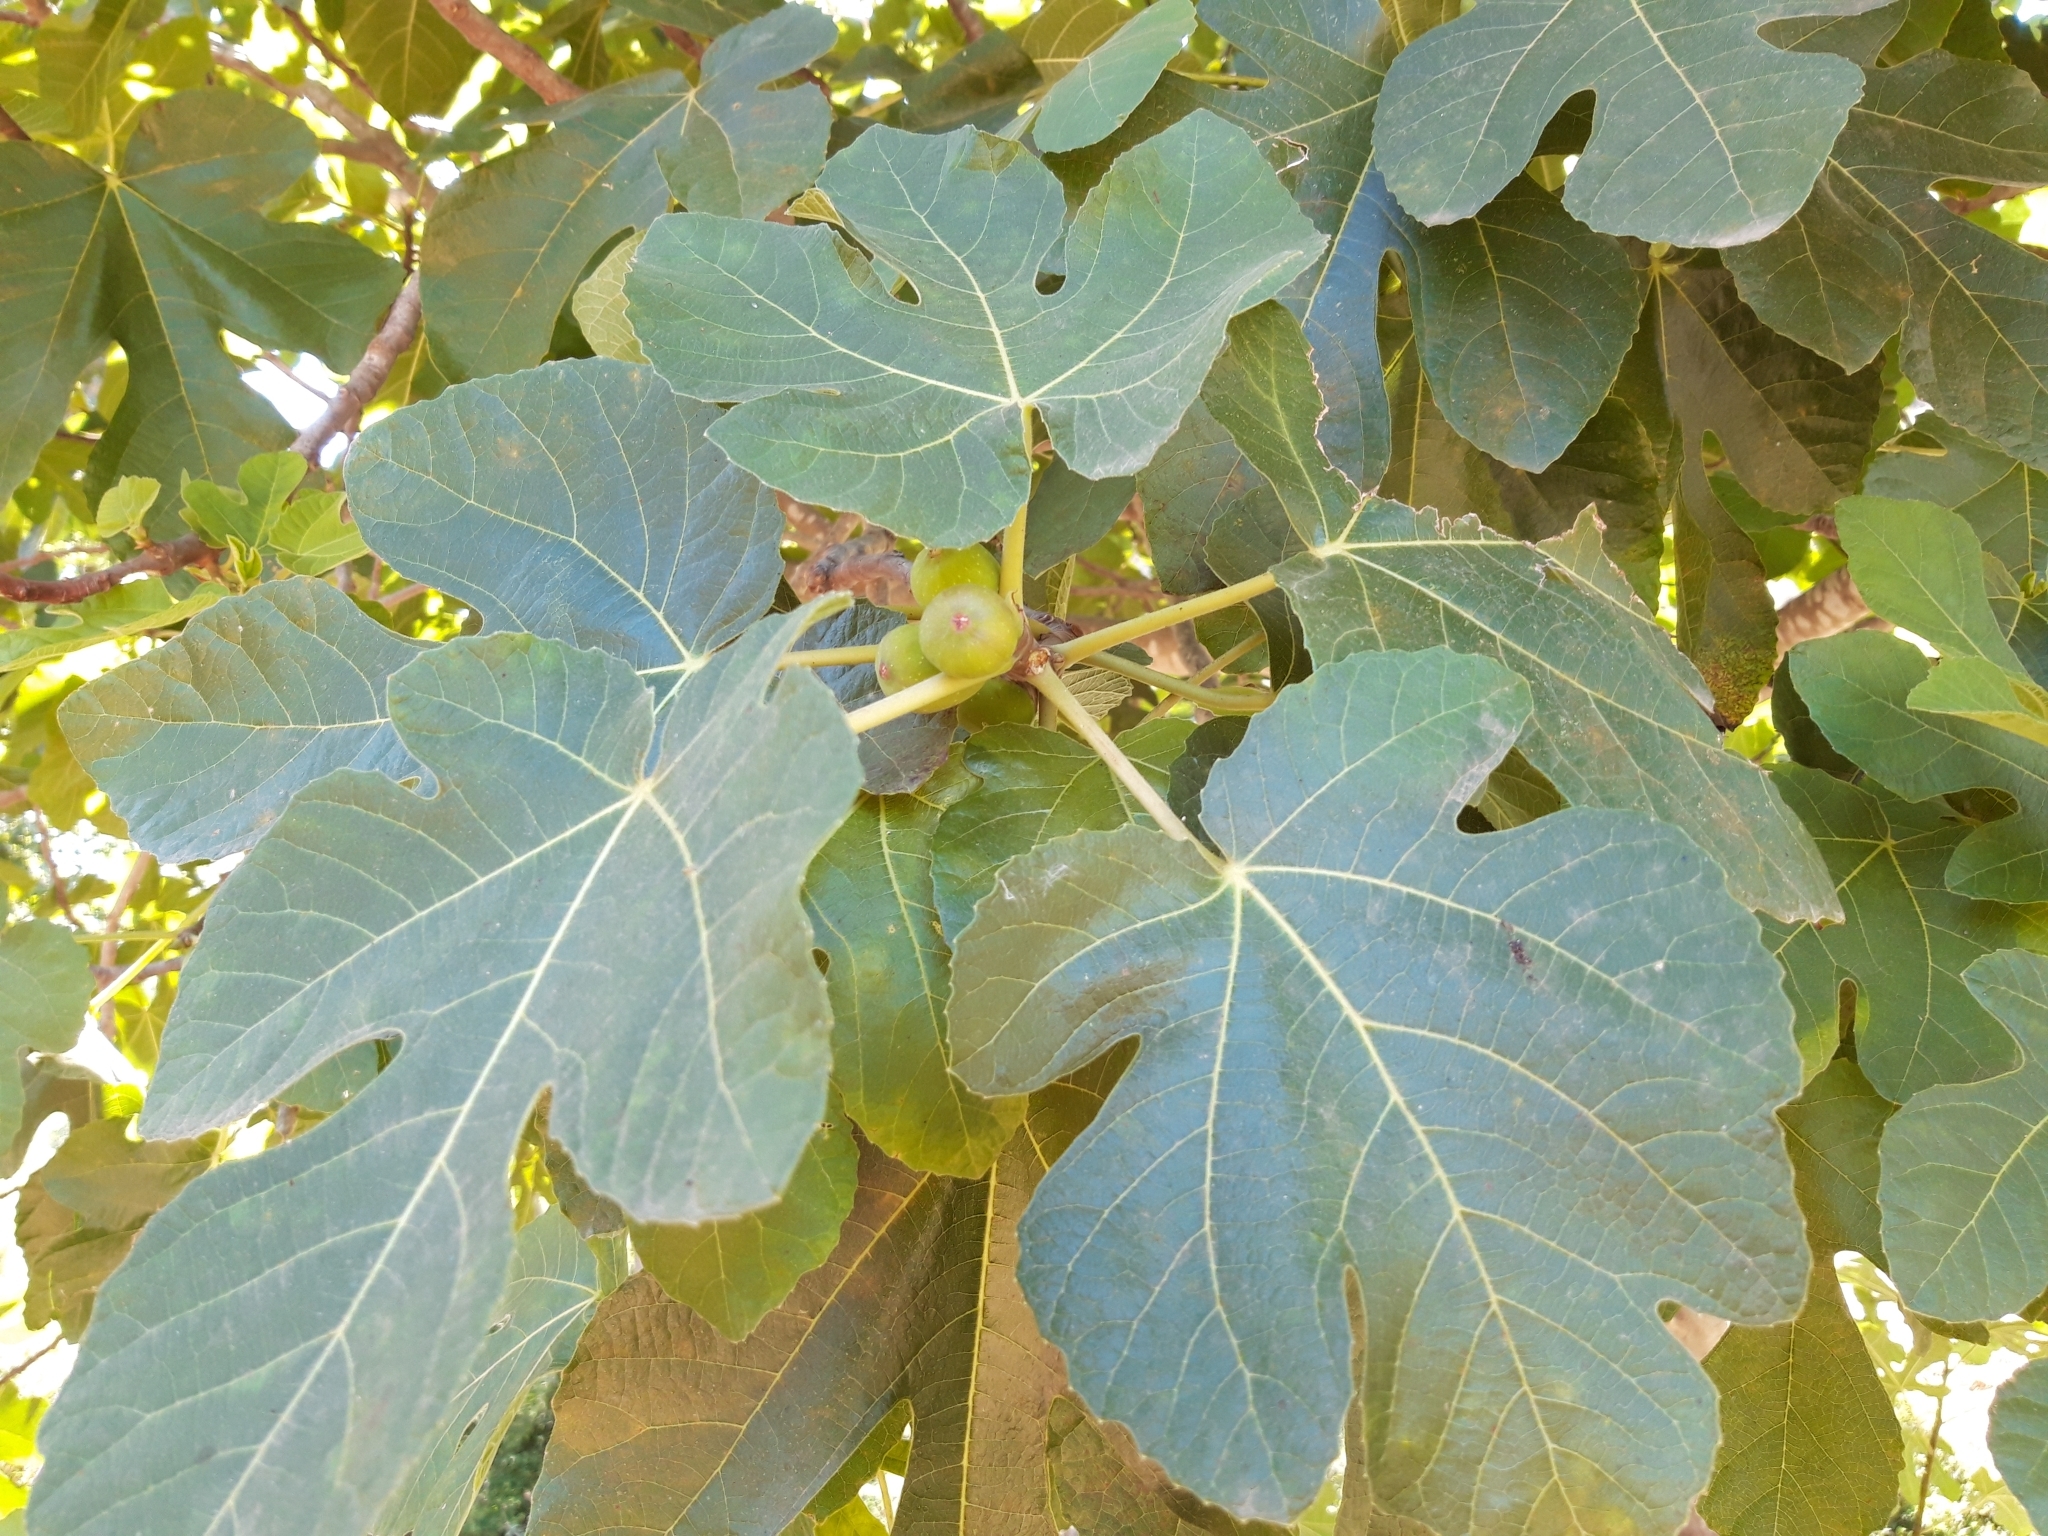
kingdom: Plantae
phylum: Tracheophyta
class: Magnoliopsida
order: Rosales
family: Moraceae
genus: Ficus
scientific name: Ficus carica
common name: Fig
